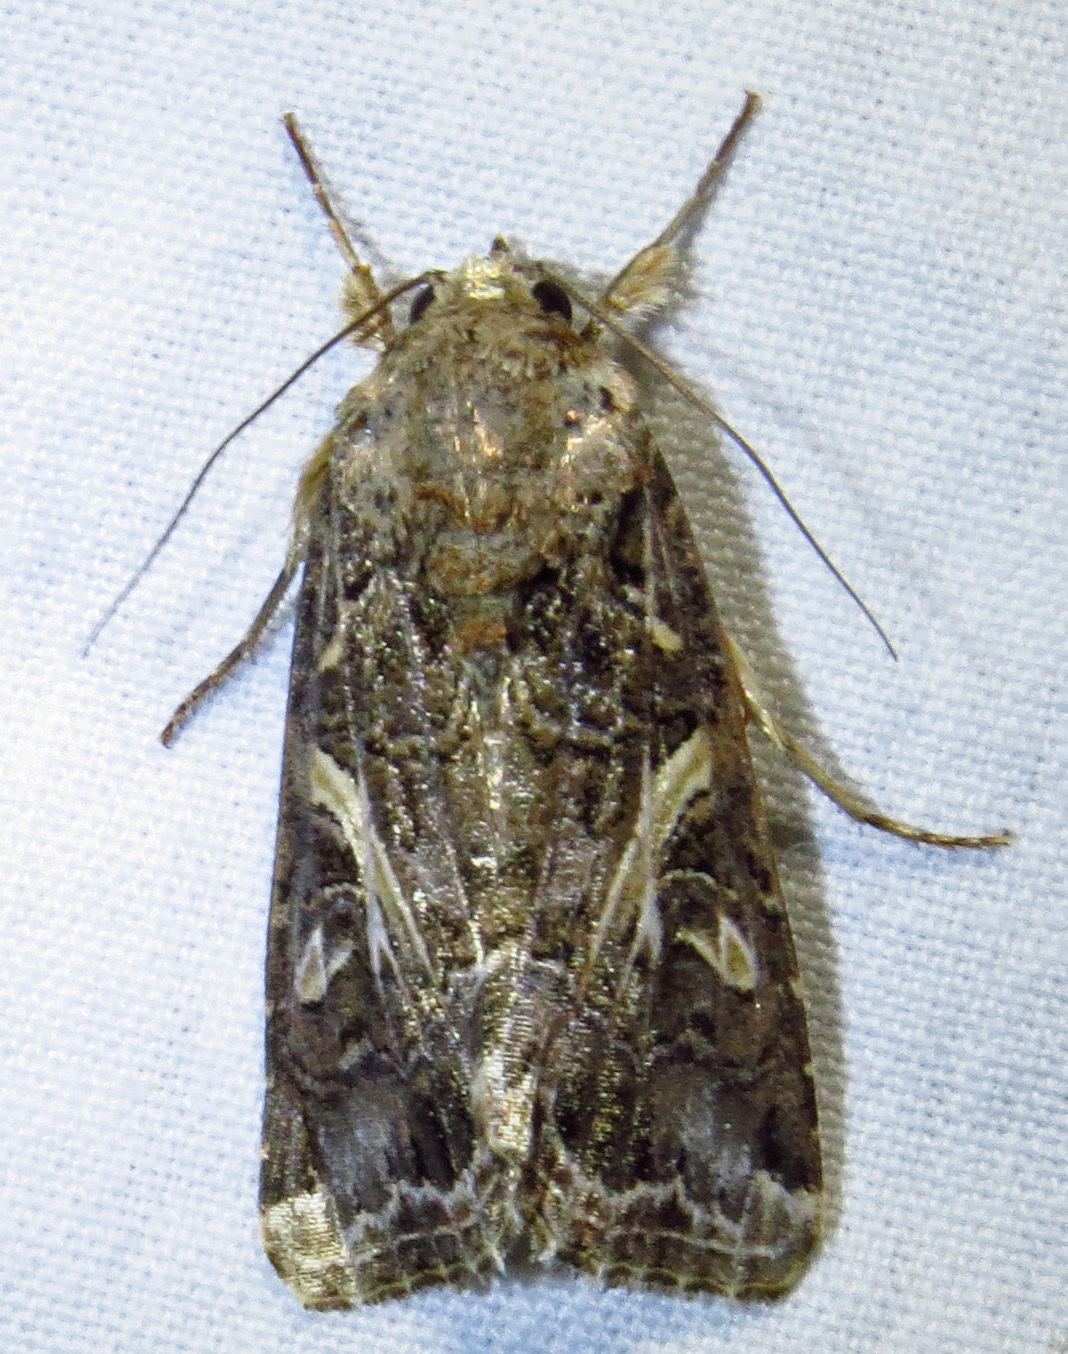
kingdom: Animalia
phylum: Arthropoda
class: Insecta
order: Lepidoptera
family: Noctuidae
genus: Spodoptera
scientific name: Spodoptera ornithogalli
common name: Yellow-striped armyworm
